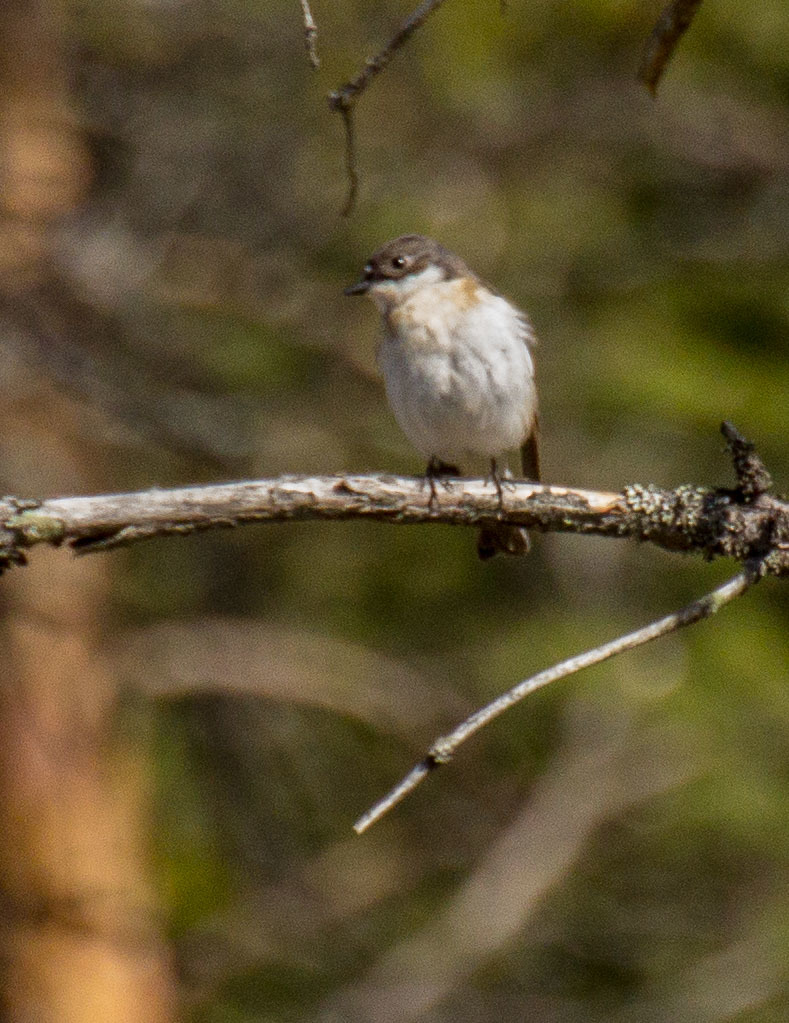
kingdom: Animalia
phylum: Chordata
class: Aves
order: Passeriformes
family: Muscicapidae
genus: Ficedula
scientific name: Ficedula hypoleuca
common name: European pied flycatcher
